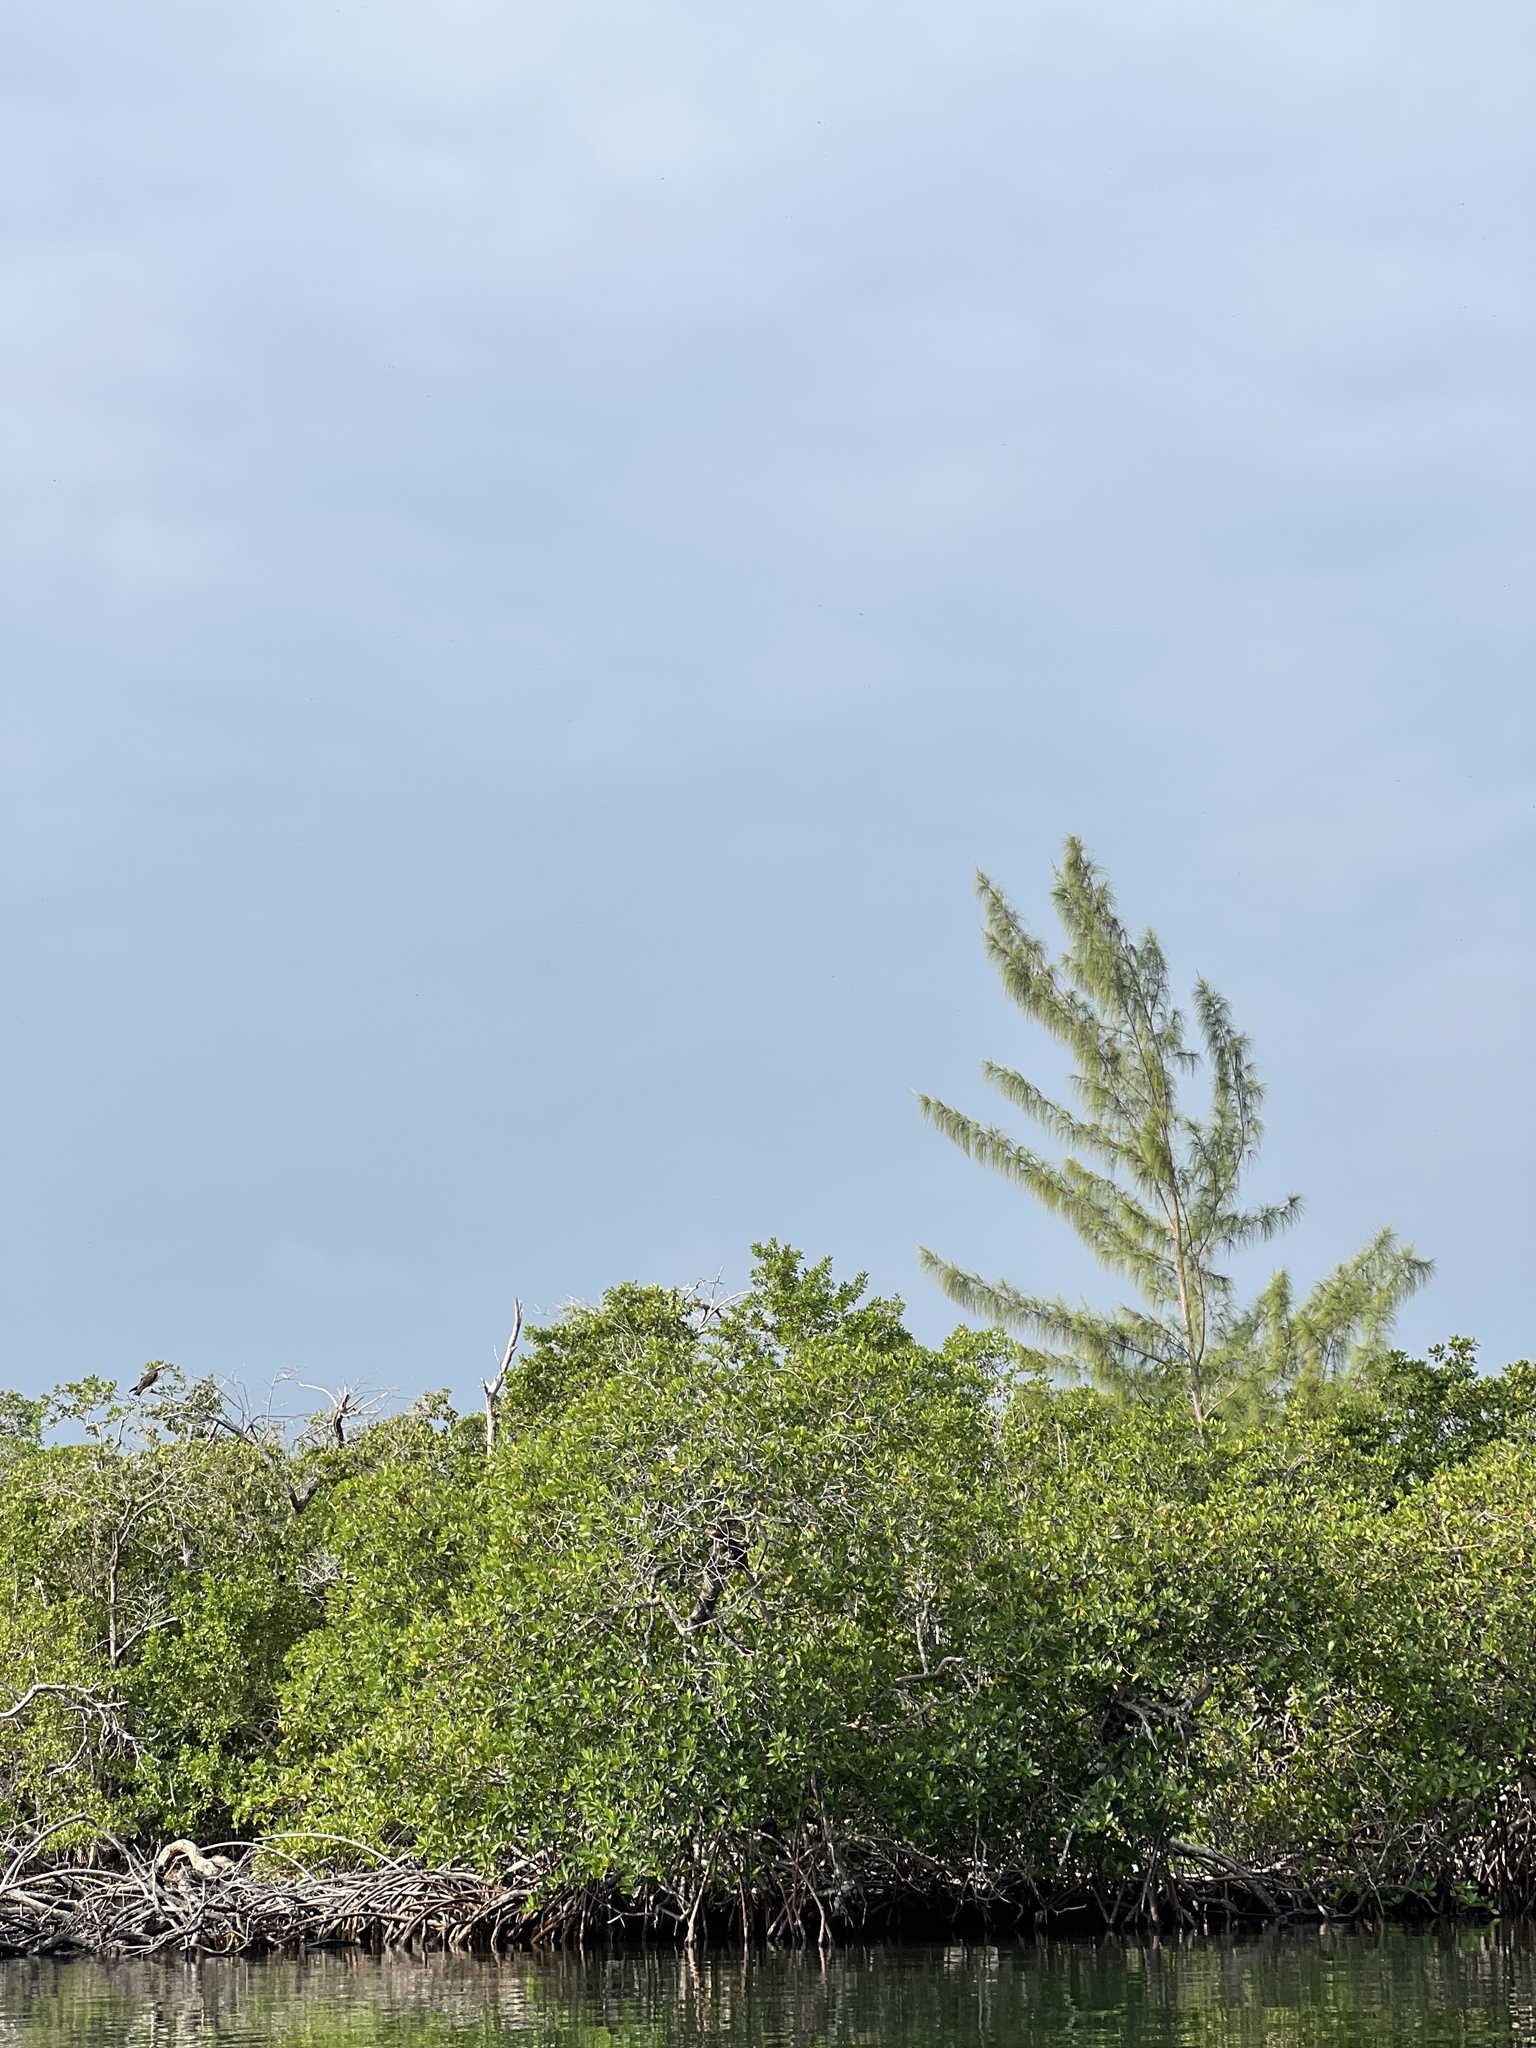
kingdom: Plantae
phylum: Tracheophyta
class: Magnoliopsida
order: Malpighiales
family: Rhizophoraceae
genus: Rhizophora
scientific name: Rhizophora mangle
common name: Red mangrove
